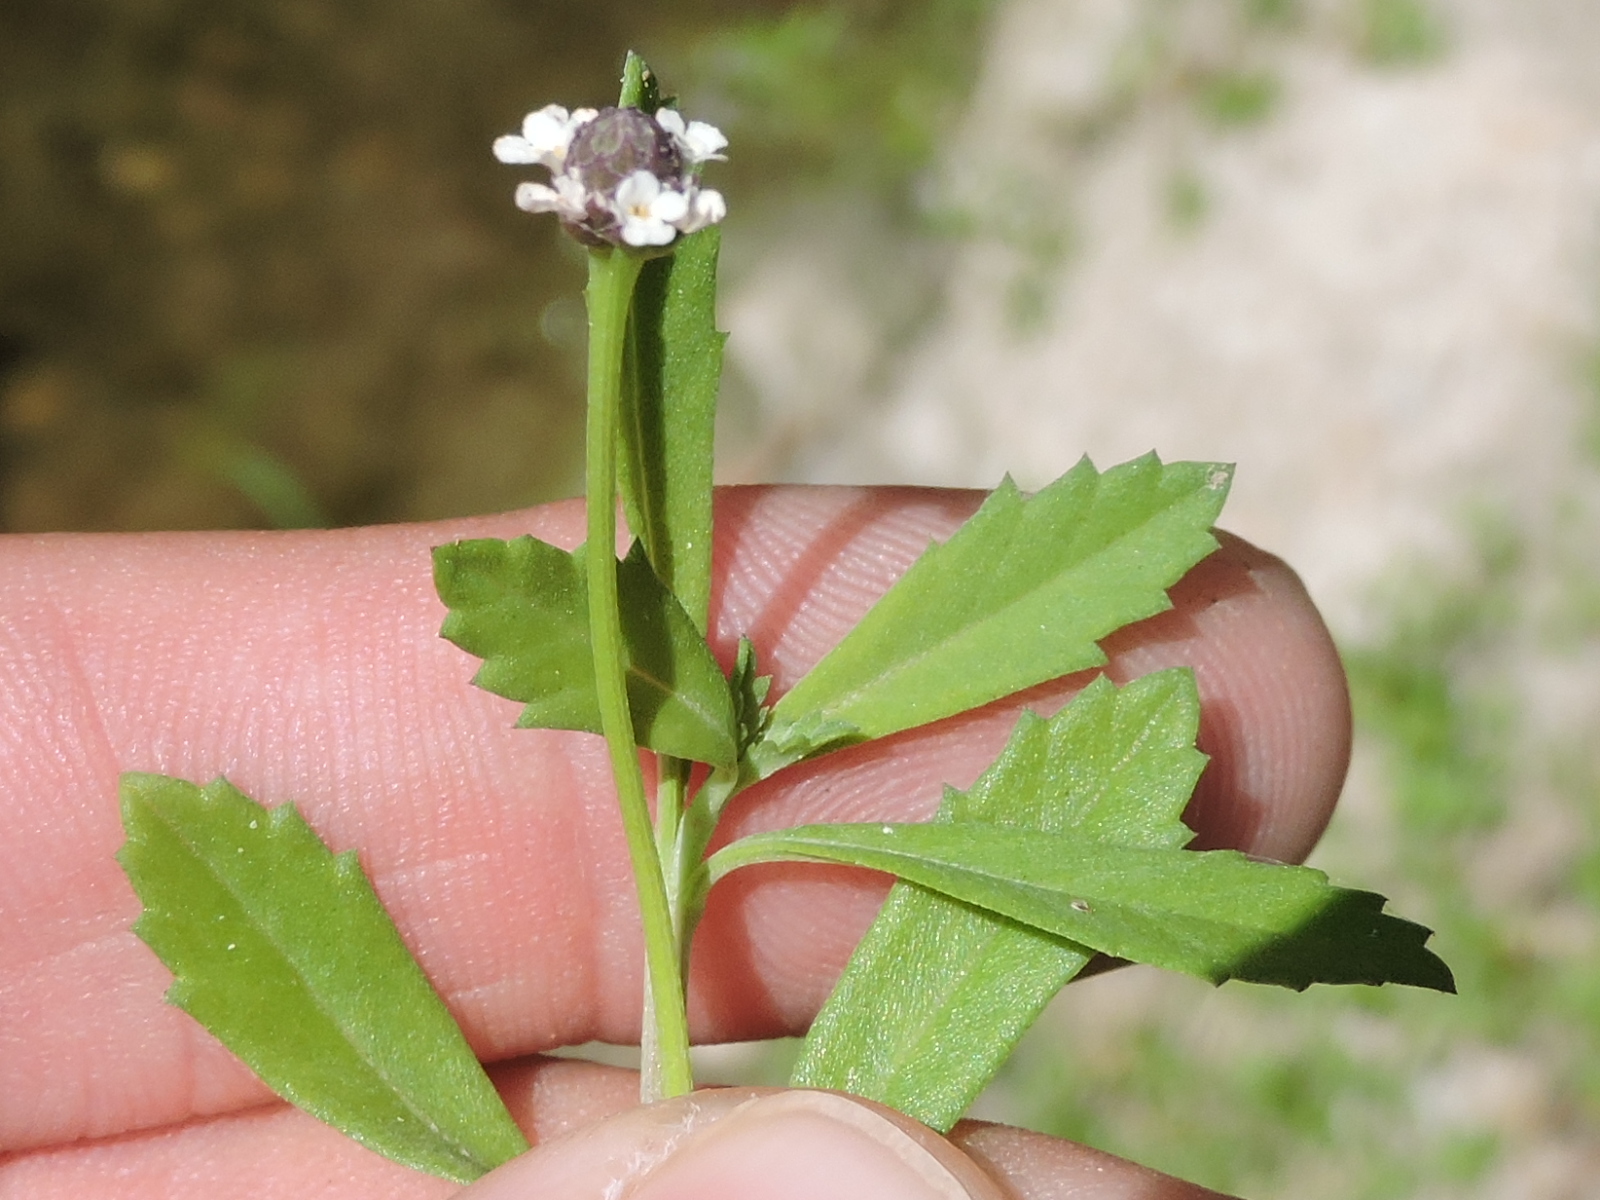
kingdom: Plantae
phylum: Tracheophyta
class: Magnoliopsida
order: Lamiales
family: Verbenaceae
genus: Phyla
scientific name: Phyla nodiflora
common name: Frogfruit
